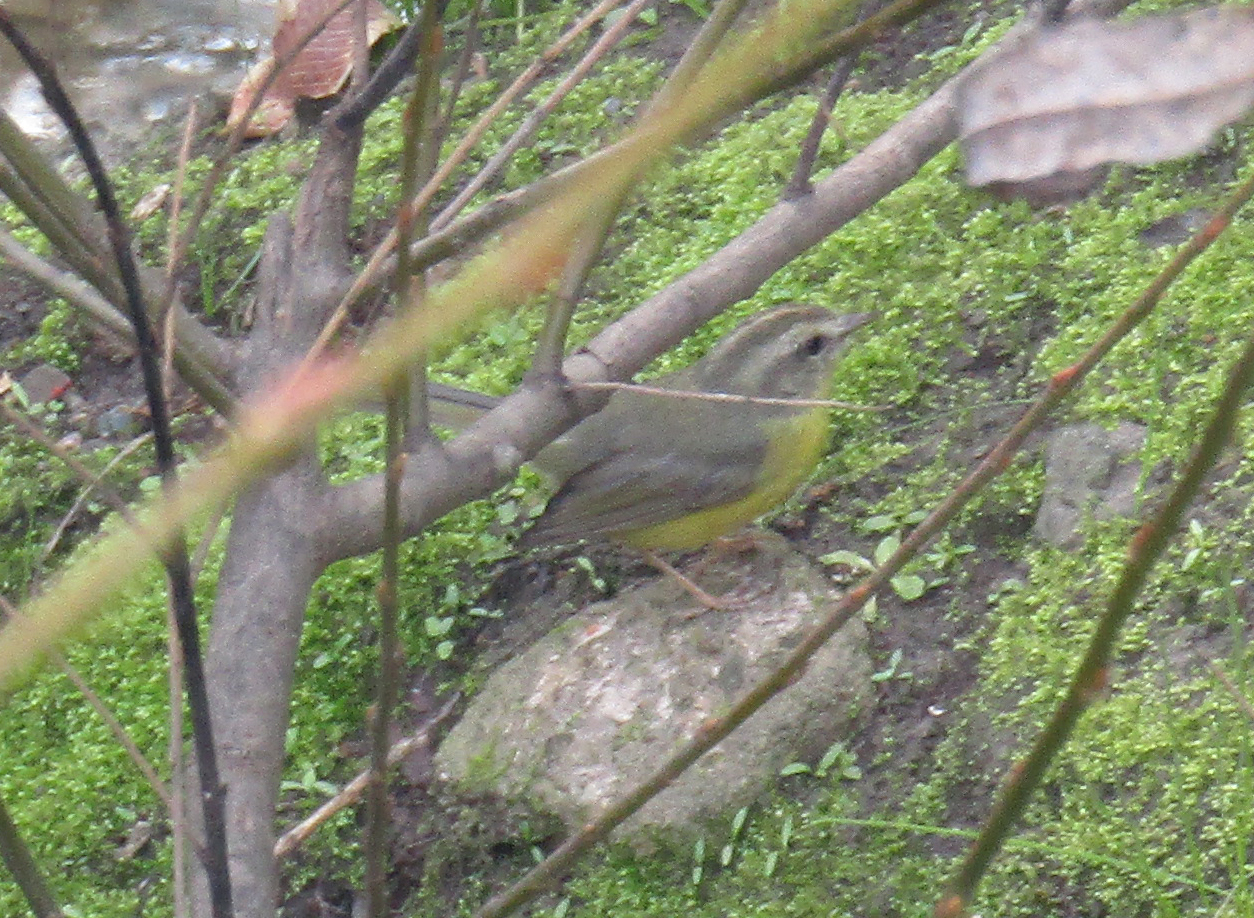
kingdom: Animalia
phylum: Chordata
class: Aves
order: Passeriformes
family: Parulidae
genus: Basileuterus
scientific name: Basileuterus culicivorus
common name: Golden-crowned warbler
